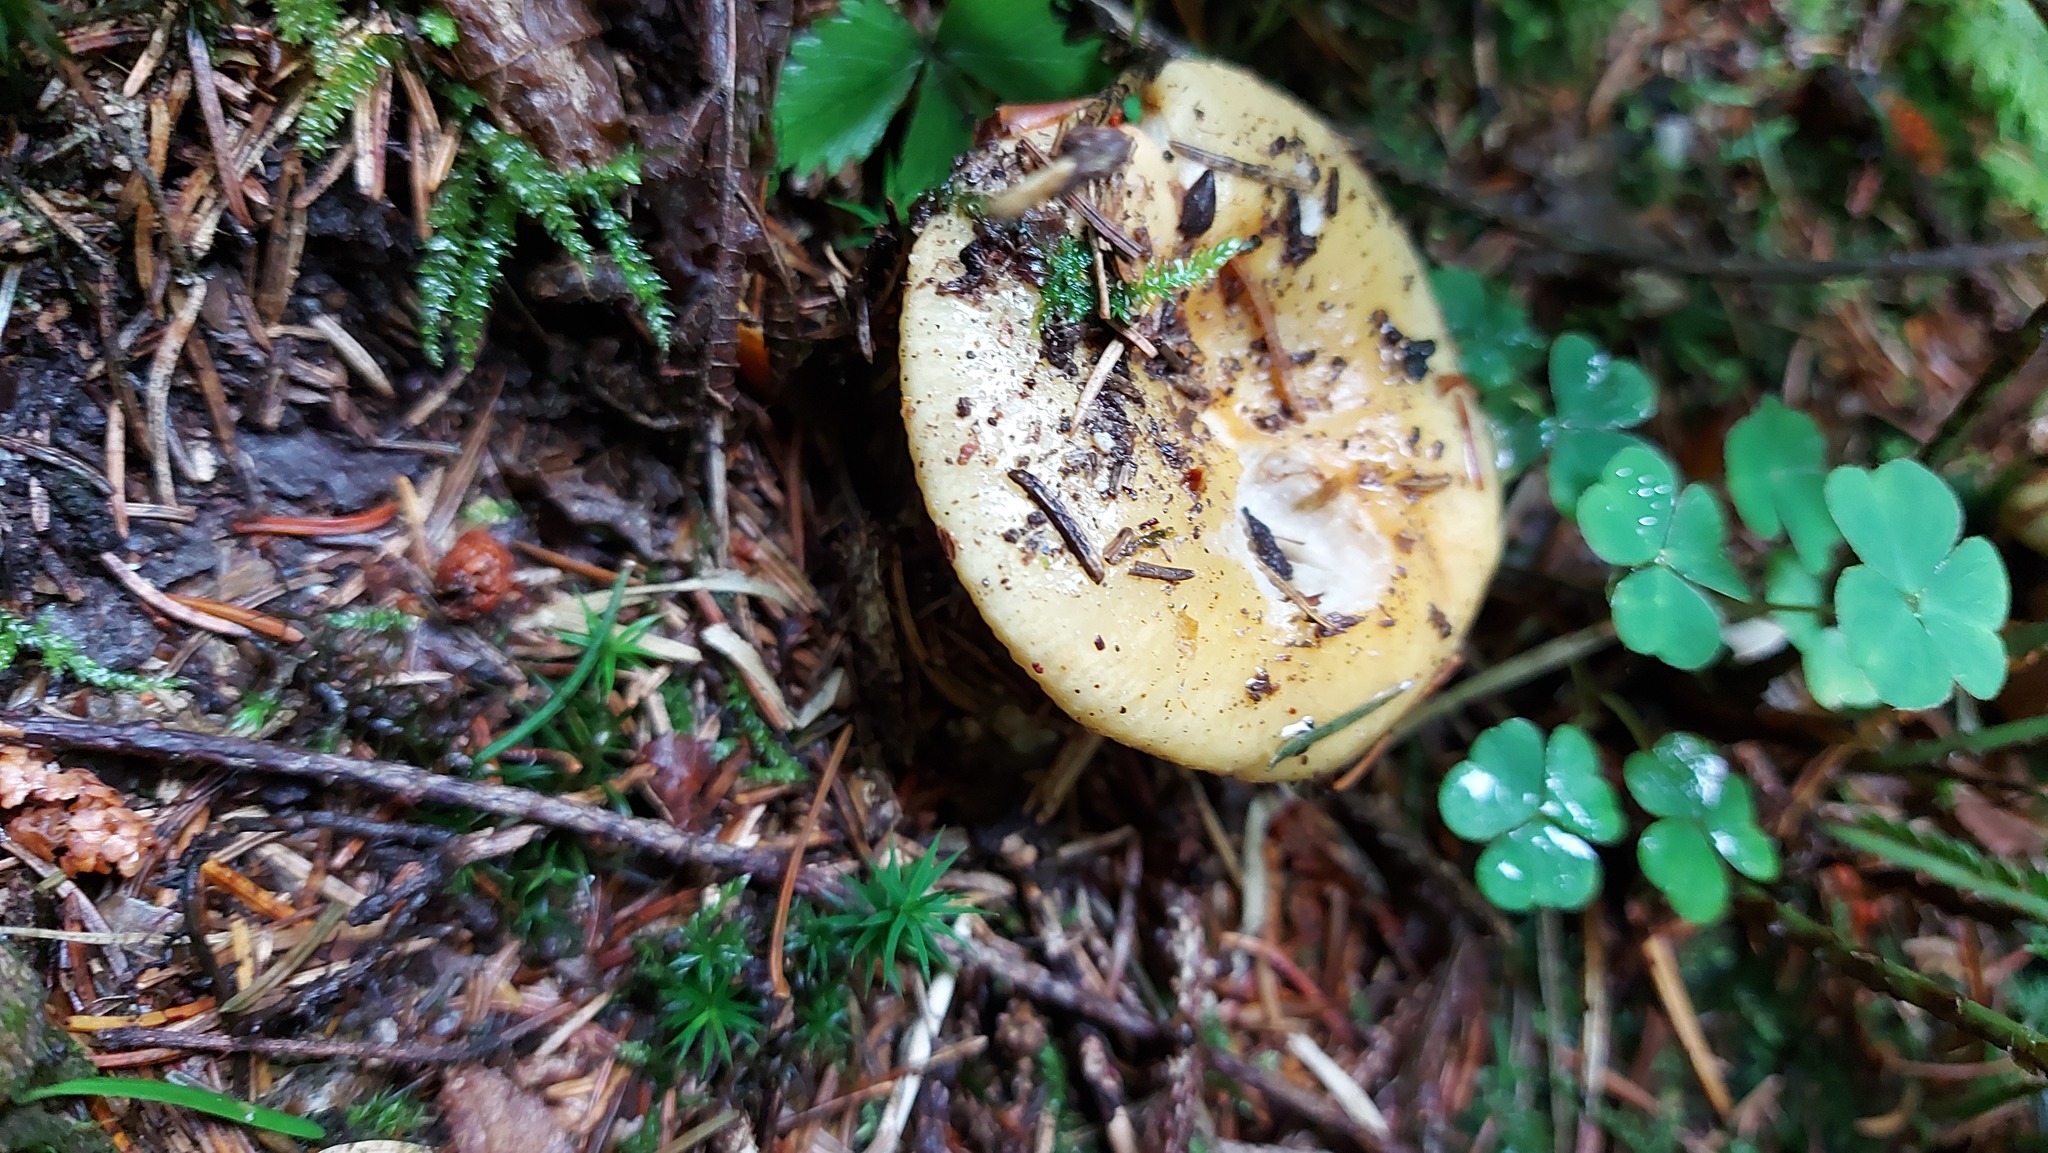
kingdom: Fungi
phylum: Basidiomycota
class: Agaricomycetes
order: Russulales
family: Russulaceae
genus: Russula
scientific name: Russula ochroleuca
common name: Common yellow russula
